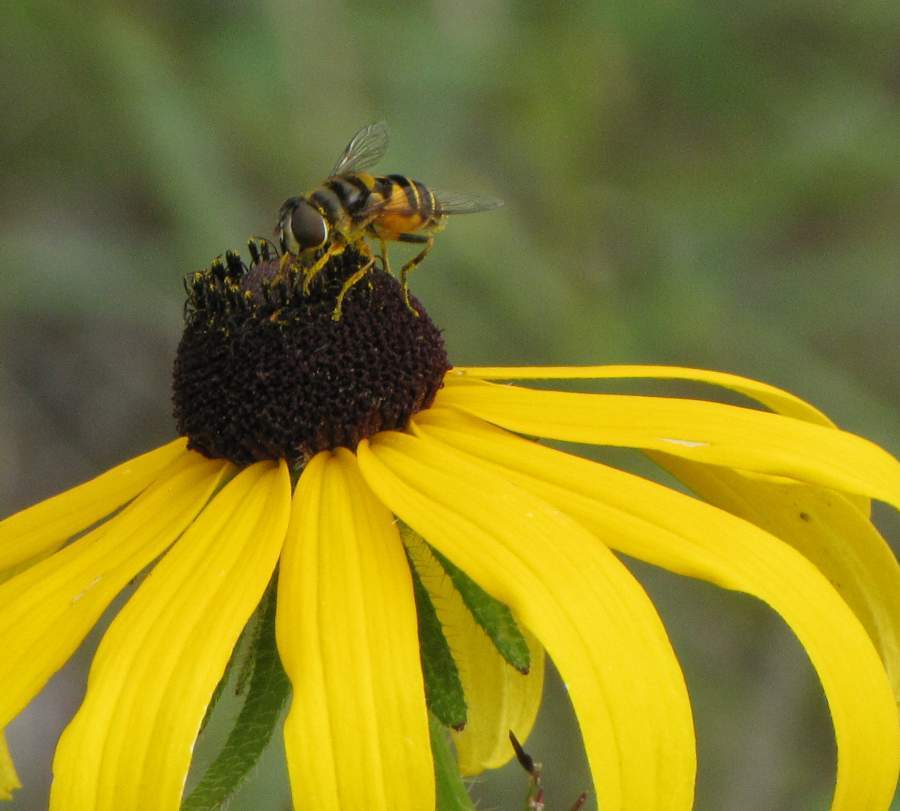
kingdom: Animalia
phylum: Arthropoda
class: Insecta
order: Diptera
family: Syrphidae
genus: Eristalis
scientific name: Eristalis transversa
